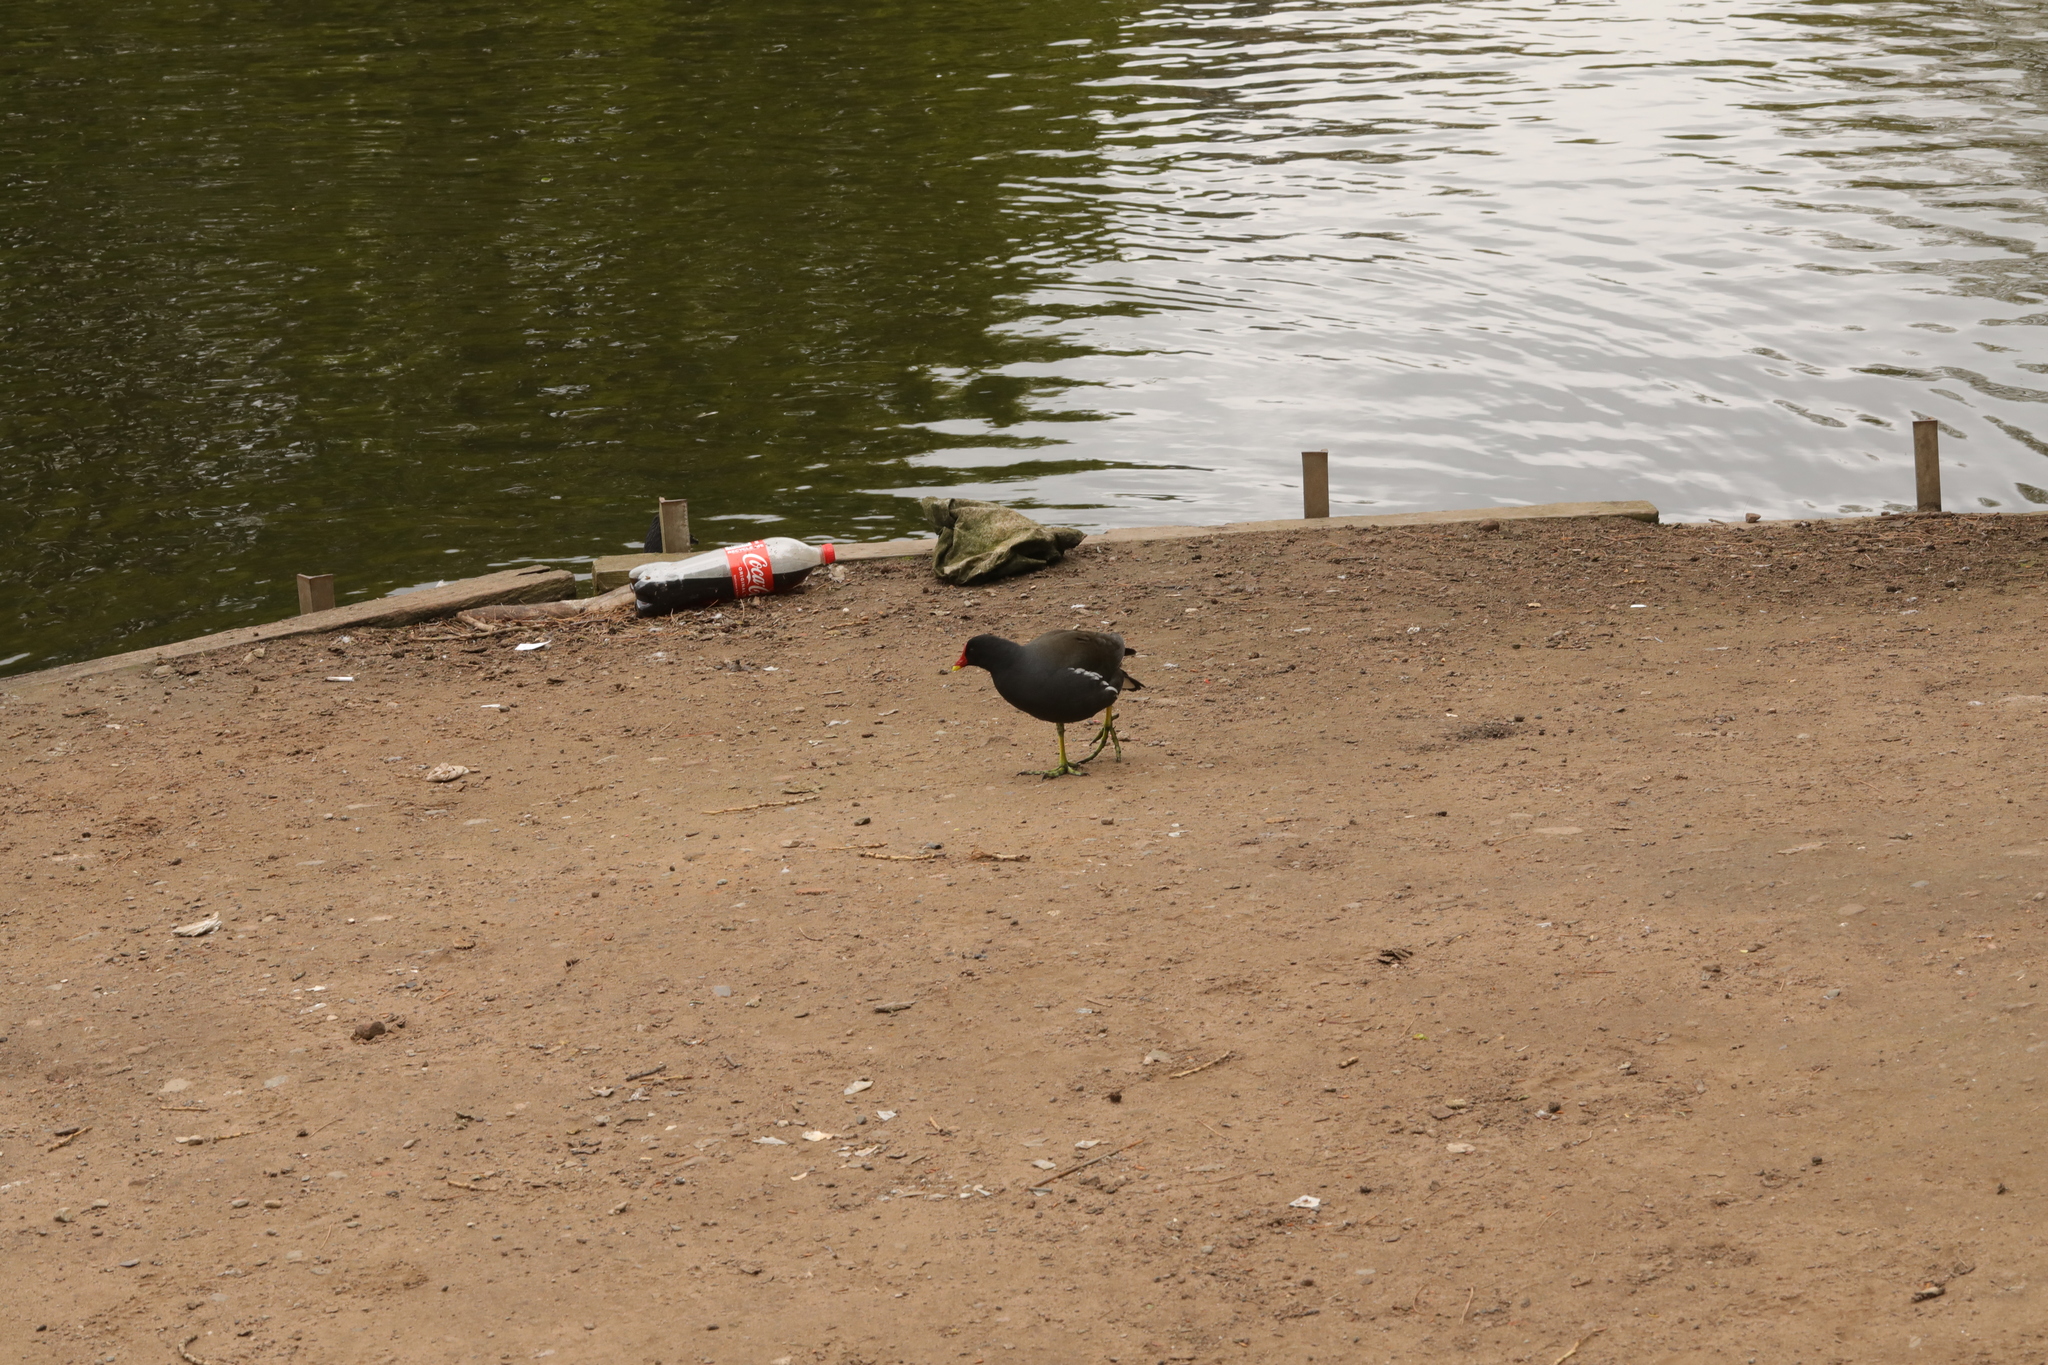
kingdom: Animalia
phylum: Chordata
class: Aves
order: Gruiformes
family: Rallidae
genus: Gallinula
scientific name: Gallinula chloropus
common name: Common moorhen
